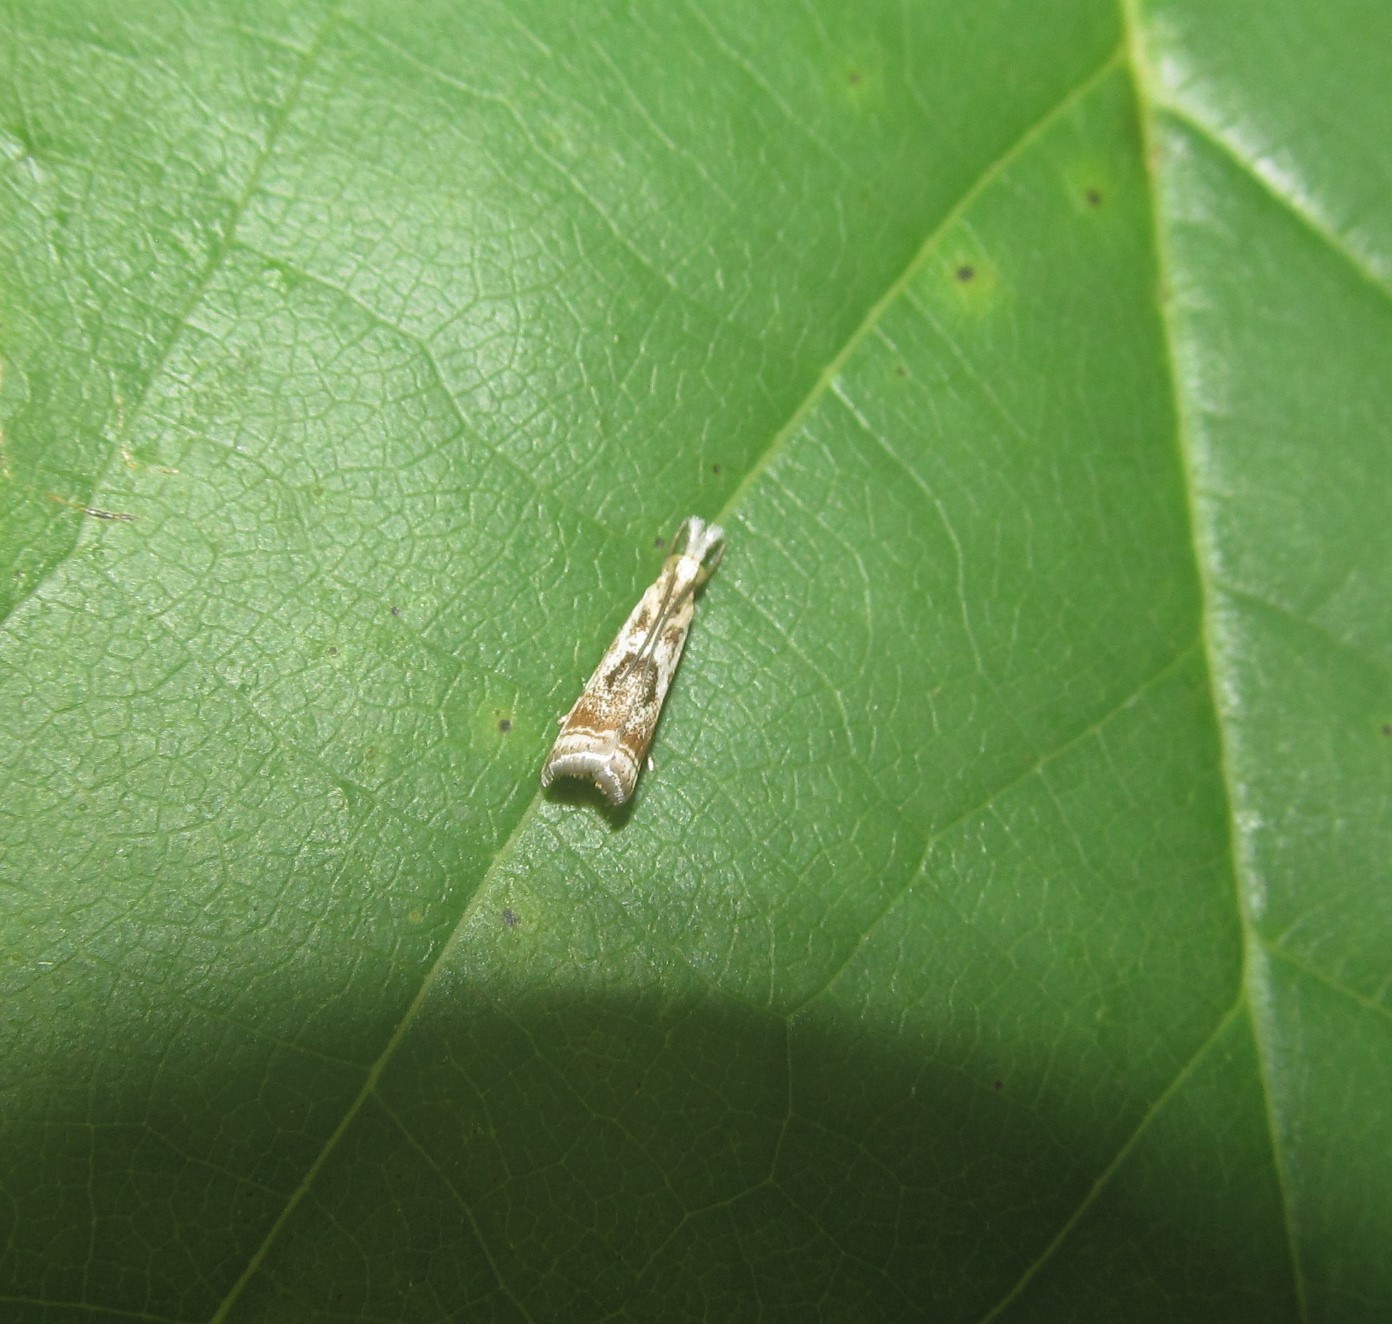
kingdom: Animalia
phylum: Arthropoda
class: Insecta
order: Lepidoptera
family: Crambidae
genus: Microcrambus
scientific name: Microcrambus elegans
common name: Elegant grass-veneer
